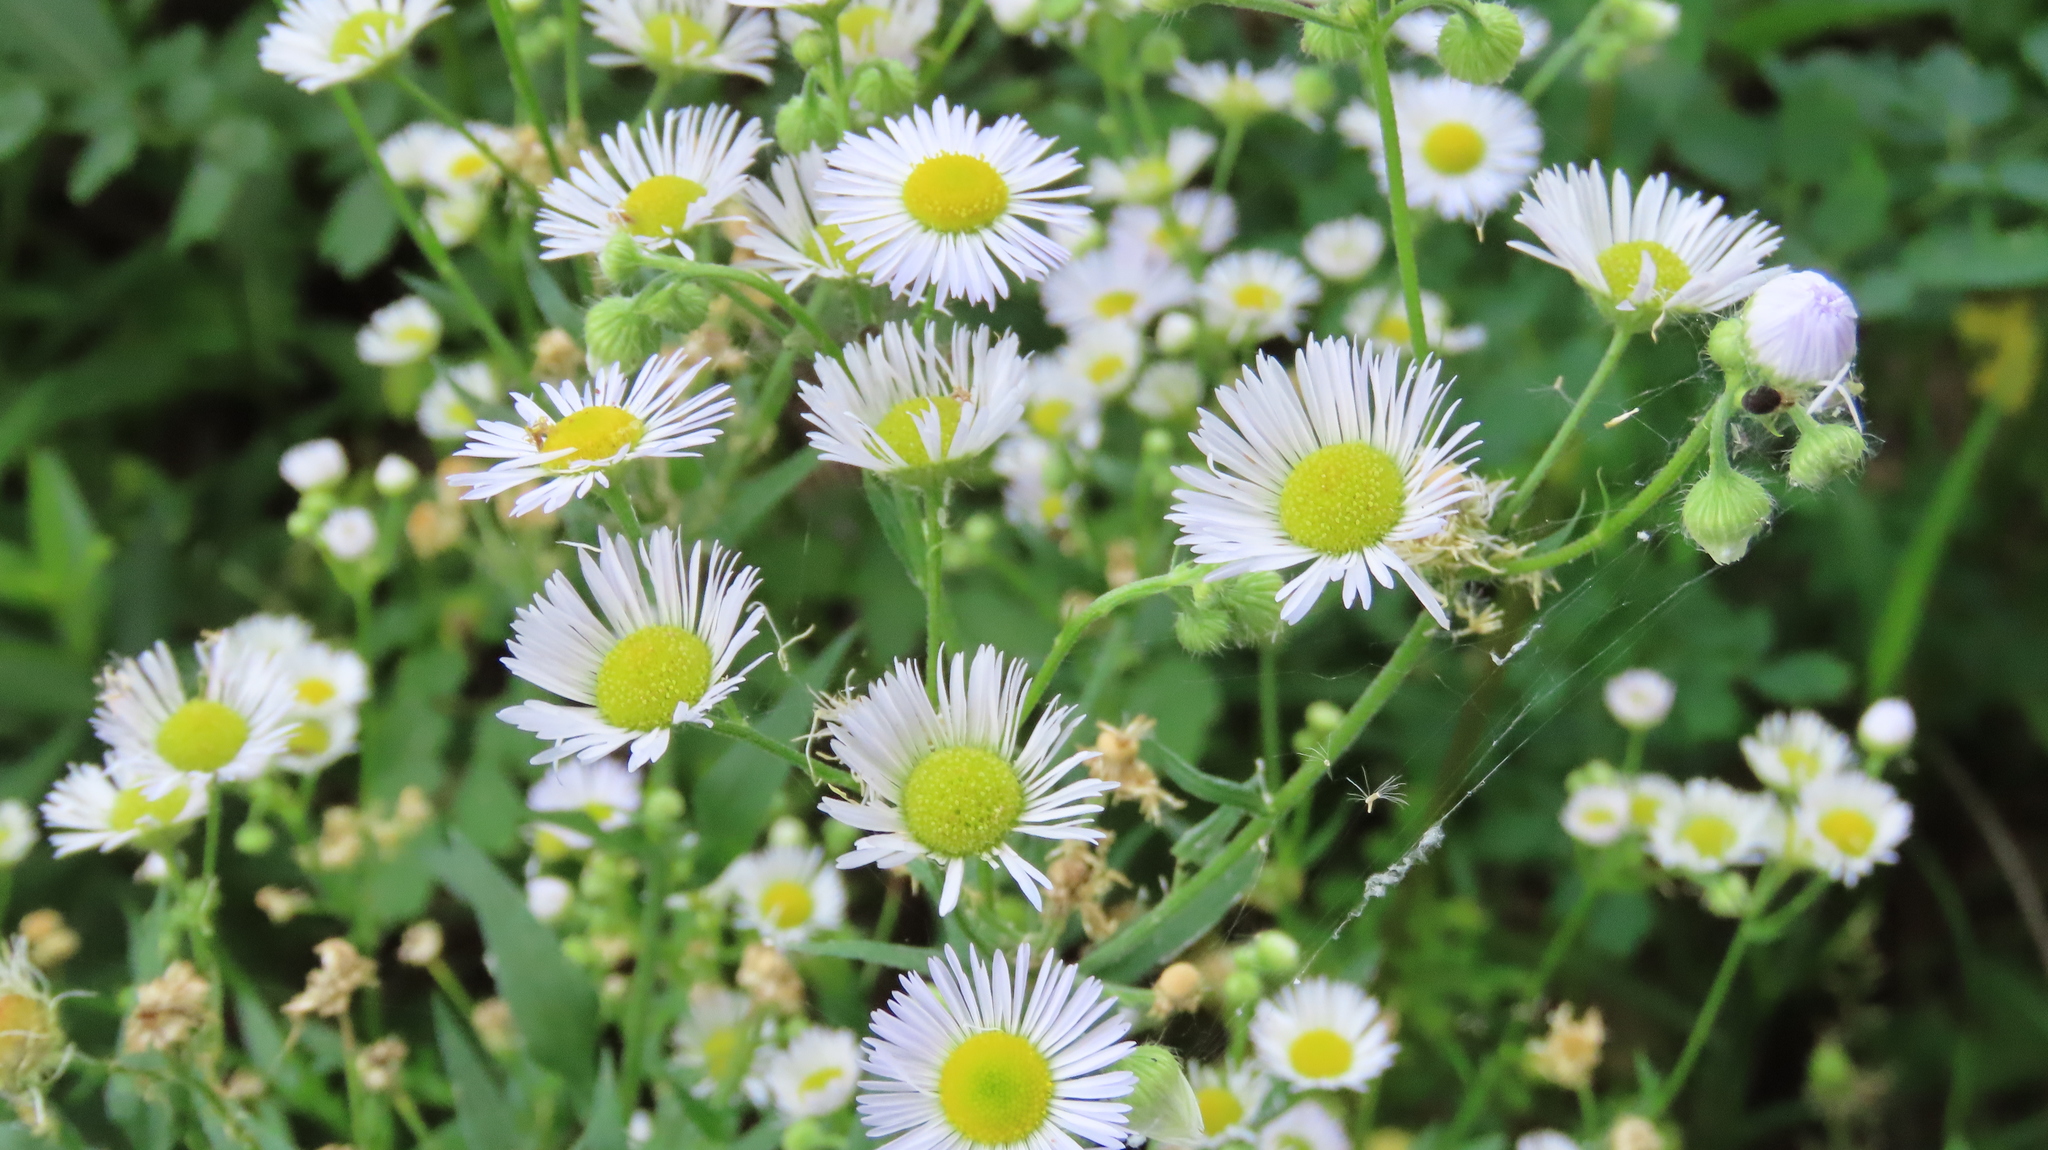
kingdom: Plantae
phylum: Tracheophyta
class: Magnoliopsida
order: Asterales
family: Asteraceae
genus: Erigeron
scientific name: Erigeron strigosus
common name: Common eastern fleabane
